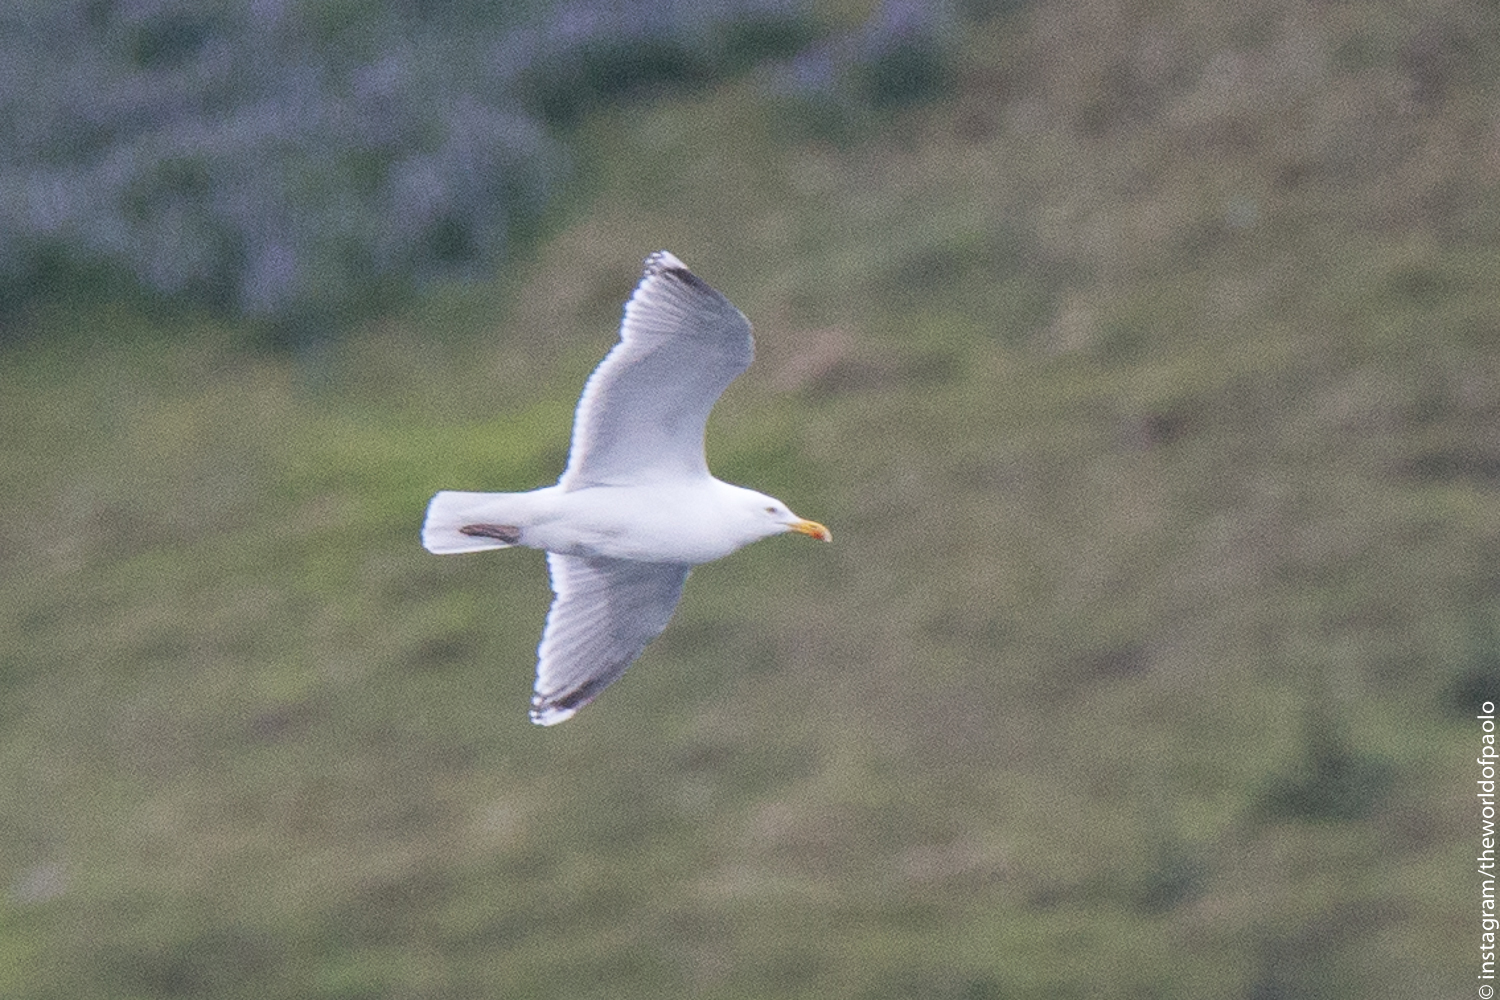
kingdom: Animalia
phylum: Chordata
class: Aves
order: Charadriiformes
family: Laridae
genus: Larus
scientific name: Larus argentatus
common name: Herring gull
